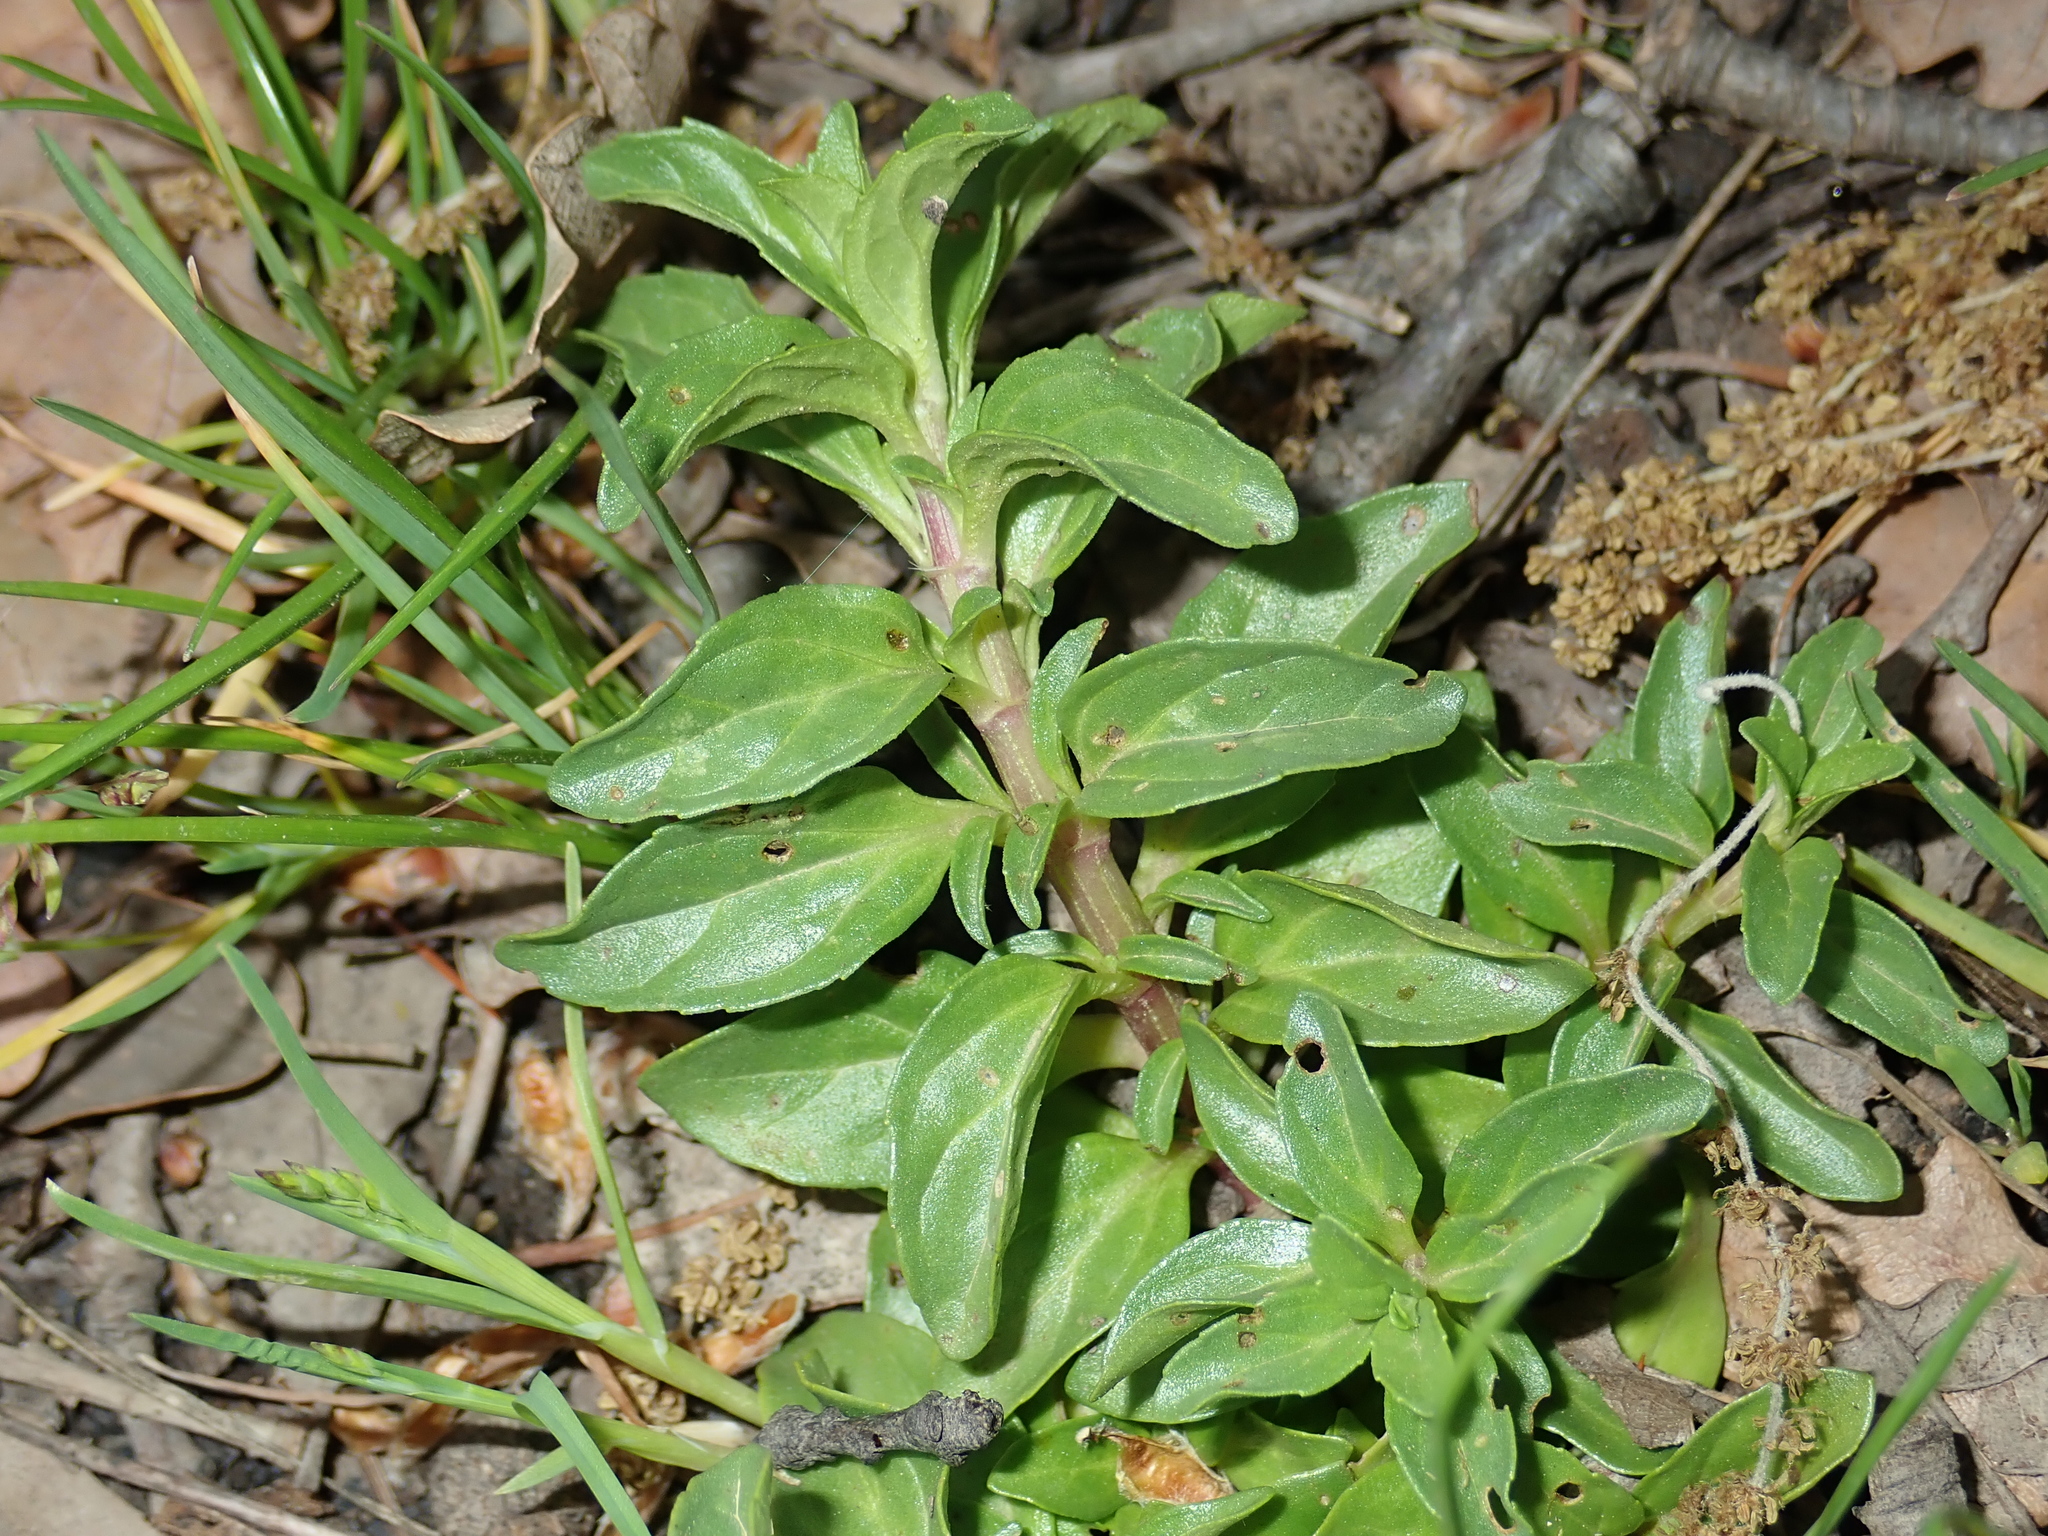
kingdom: Plantae
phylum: Tracheophyta
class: Magnoliopsida
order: Lamiales
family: Lamiaceae
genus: Mentha
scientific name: Mentha pulegium
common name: Pennyroyal
